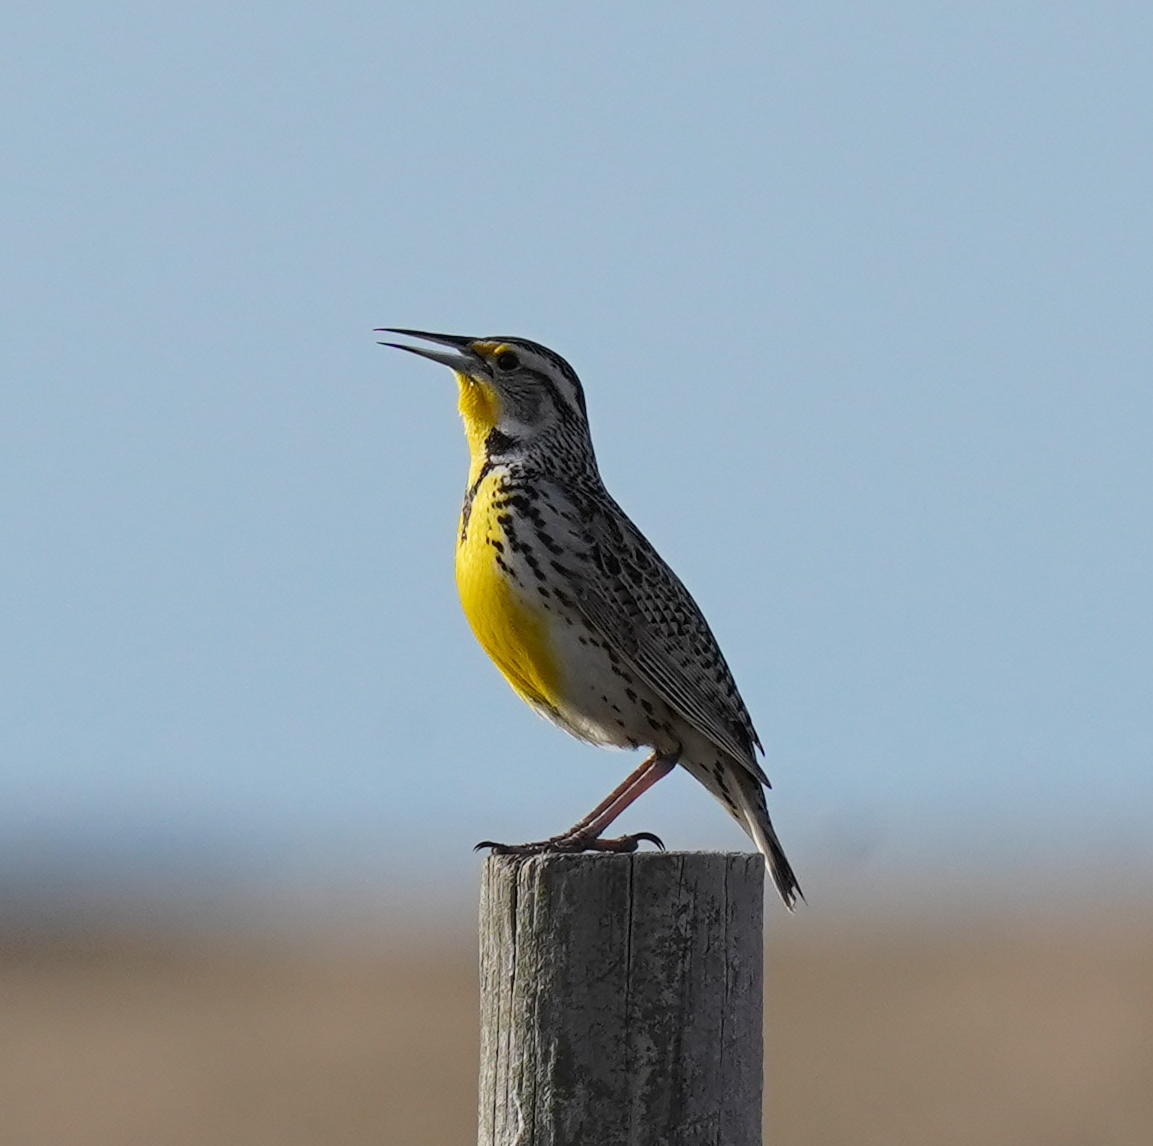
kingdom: Animalia
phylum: Chordata
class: Aves
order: Passeriformes
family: Icteridae
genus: Sturnella
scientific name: Sturnella neglecta
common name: Western meadowlark
